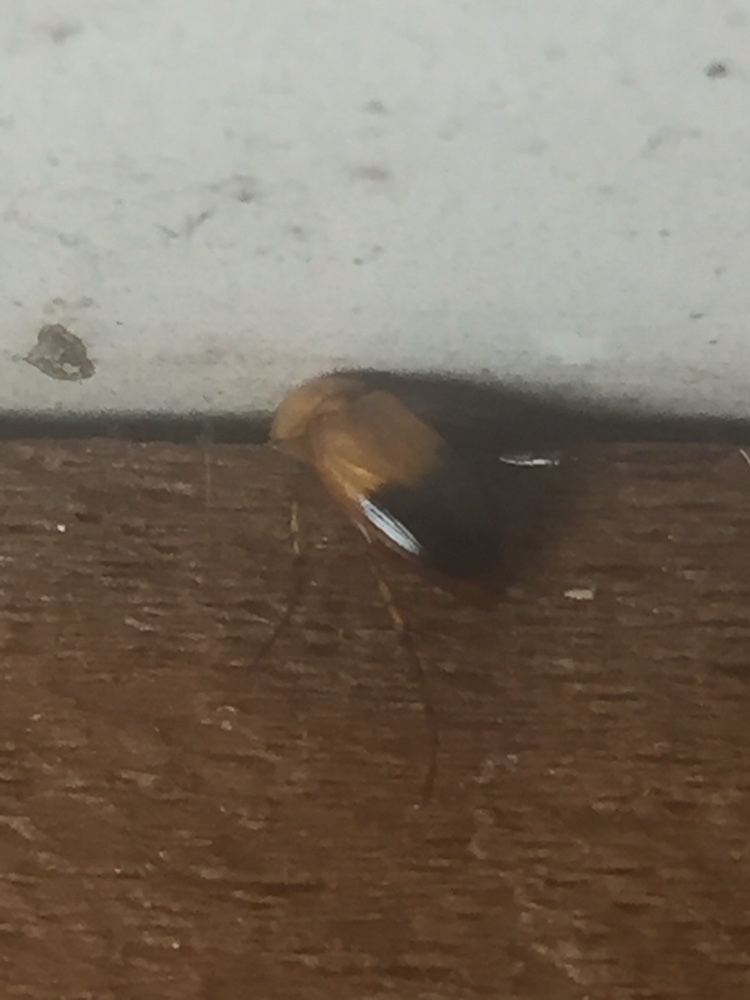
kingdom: Animalia
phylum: Arthropoda
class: Insecta
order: Coleoptera
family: Scarabaeidae
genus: Phyllotocus
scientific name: Phyllotocus macleayi
